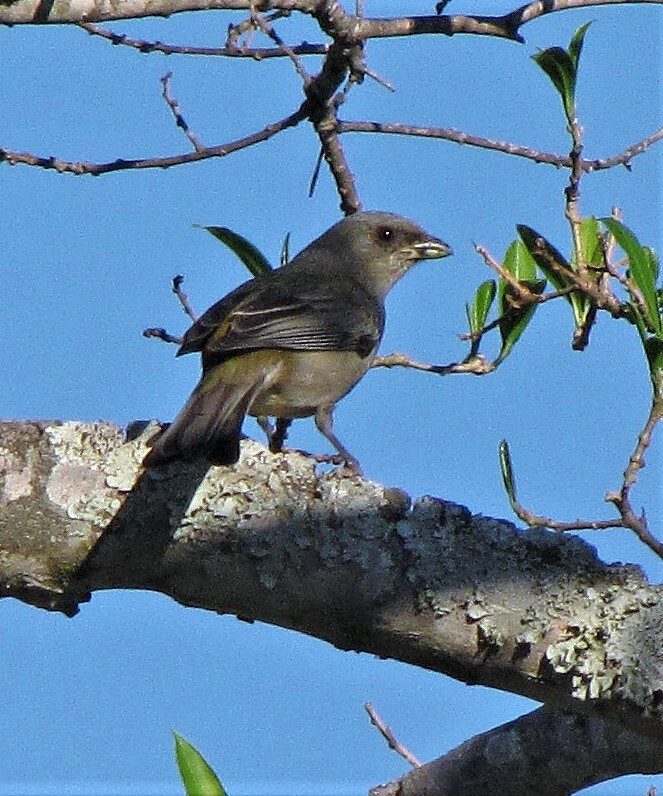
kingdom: Animalia
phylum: Chordata
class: Aves
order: Passeriformes
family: Thraupidae
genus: Rauenia
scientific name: Rauenia bonariensis
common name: Blue-and-yellow tanager
